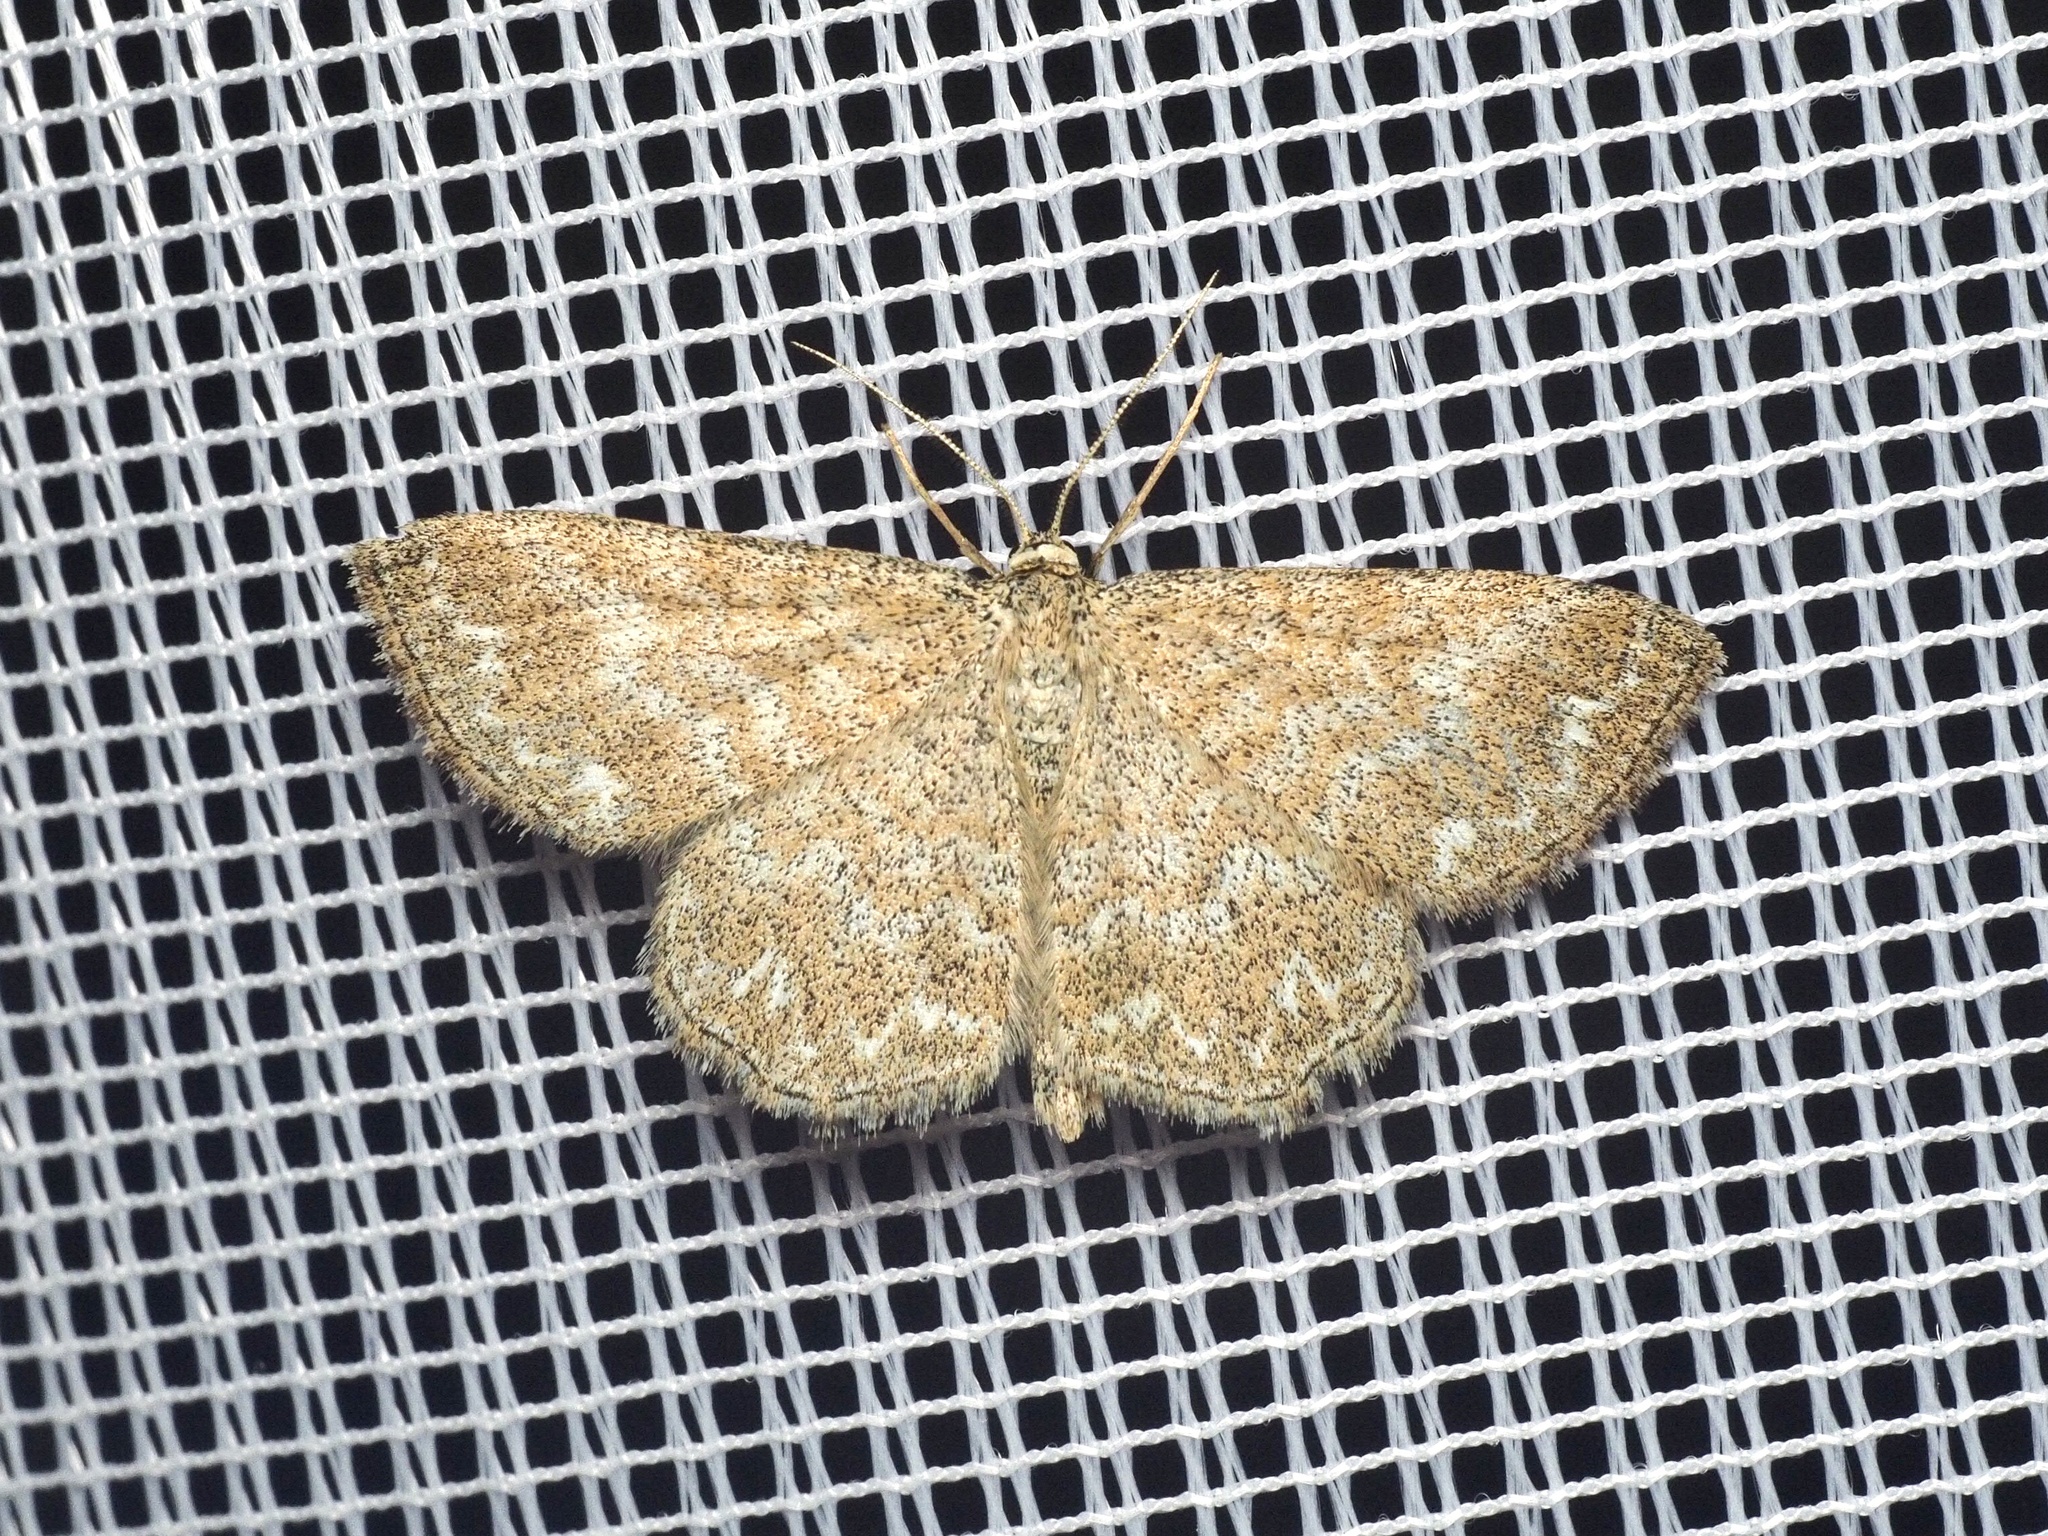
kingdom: Animalia
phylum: Arthropoda
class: Insecta
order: Lepidoptera
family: Geometridae
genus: Scopula
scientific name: Scopula immorata
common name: Lewes wave
